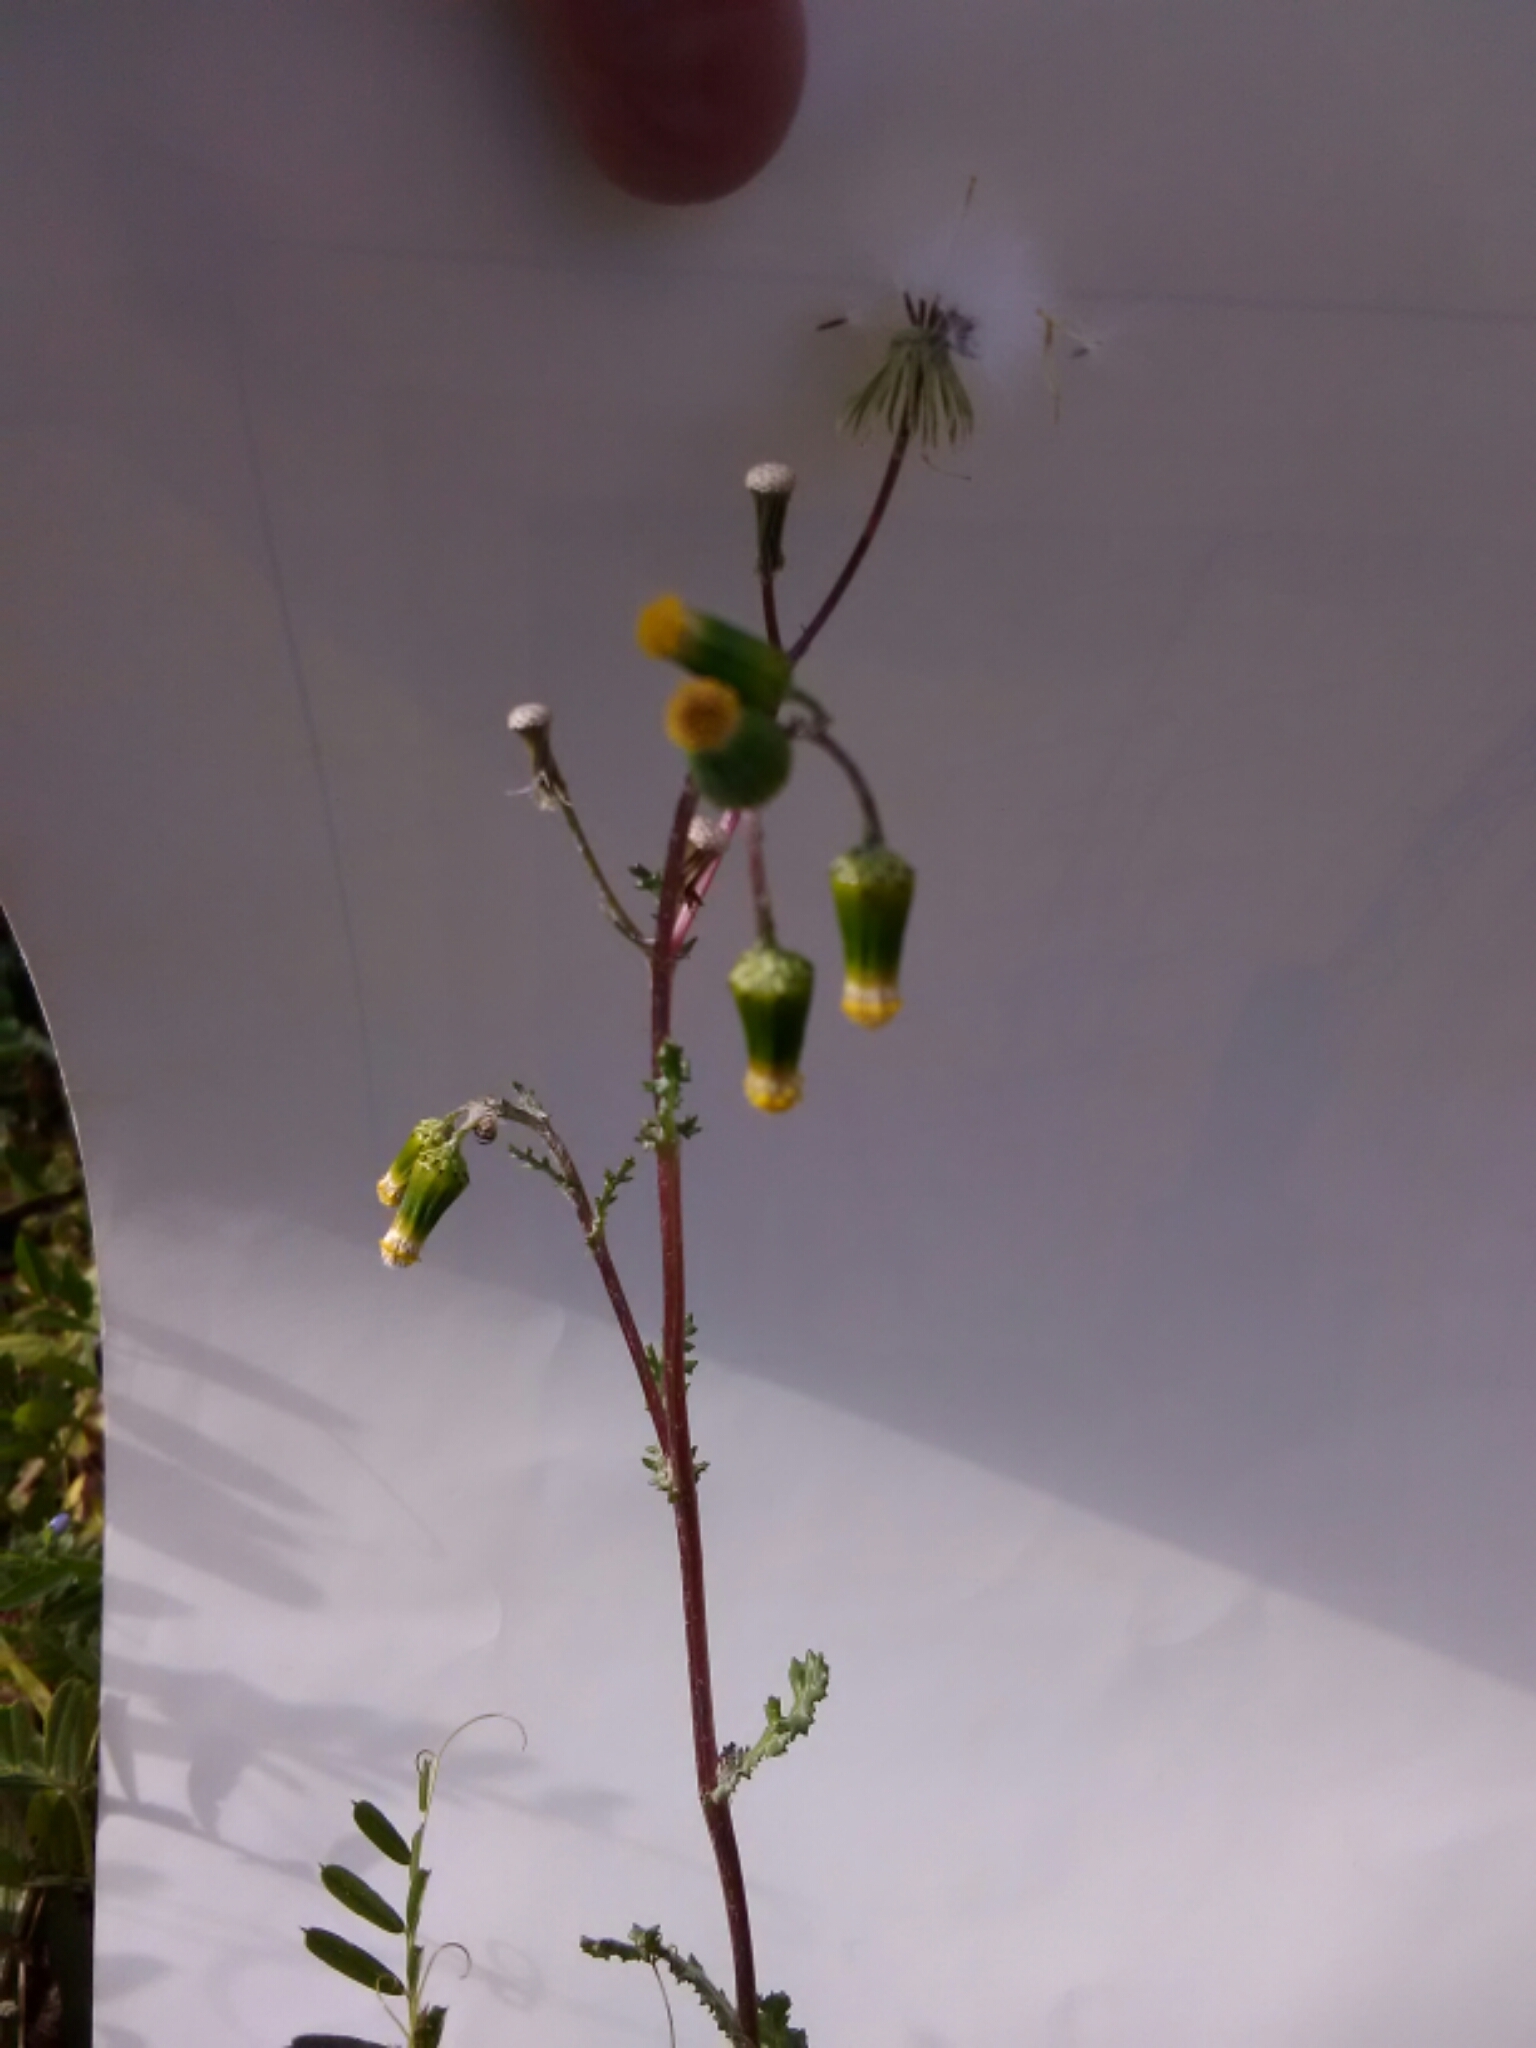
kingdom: Plantae
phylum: Tracheophyta
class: Magnoliopsida
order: Asterales
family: Asteraceae
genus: Senecio
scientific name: Senecio vulgaris
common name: Old-man-in-the-spring
